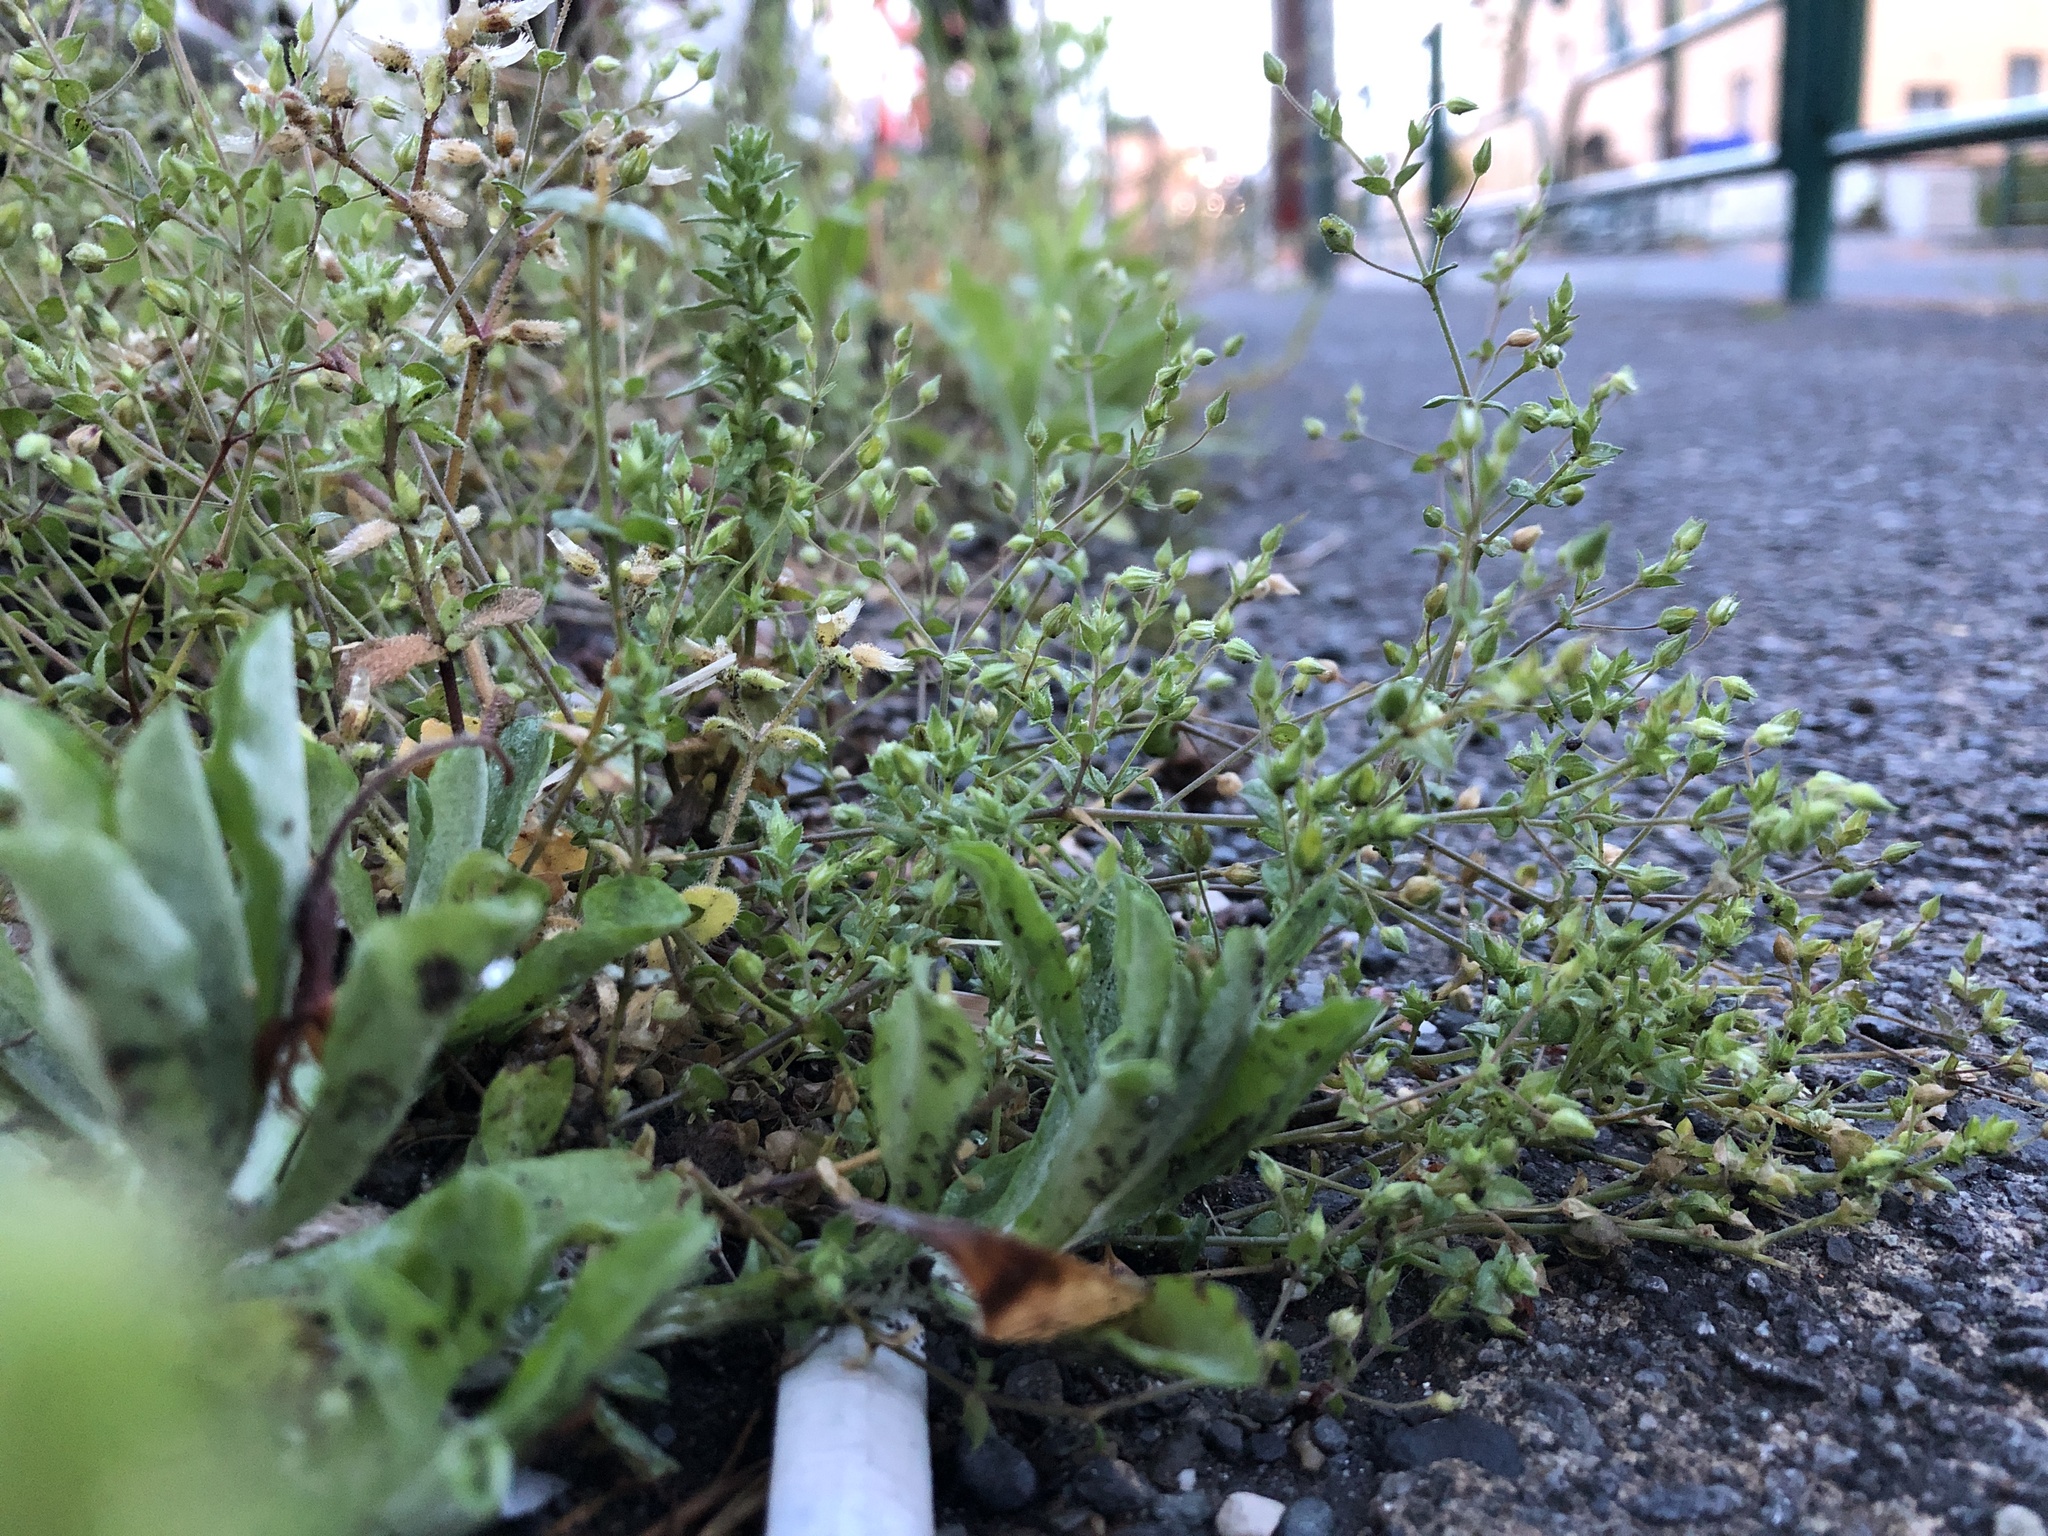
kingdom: Plantae
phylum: Tracheophyta
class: Magnoliopsida
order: Caryophyllales
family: Caryophyllaceae
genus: Arenaria
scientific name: Arenaria serpyllifolia
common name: Thyme-leaved sandwort
